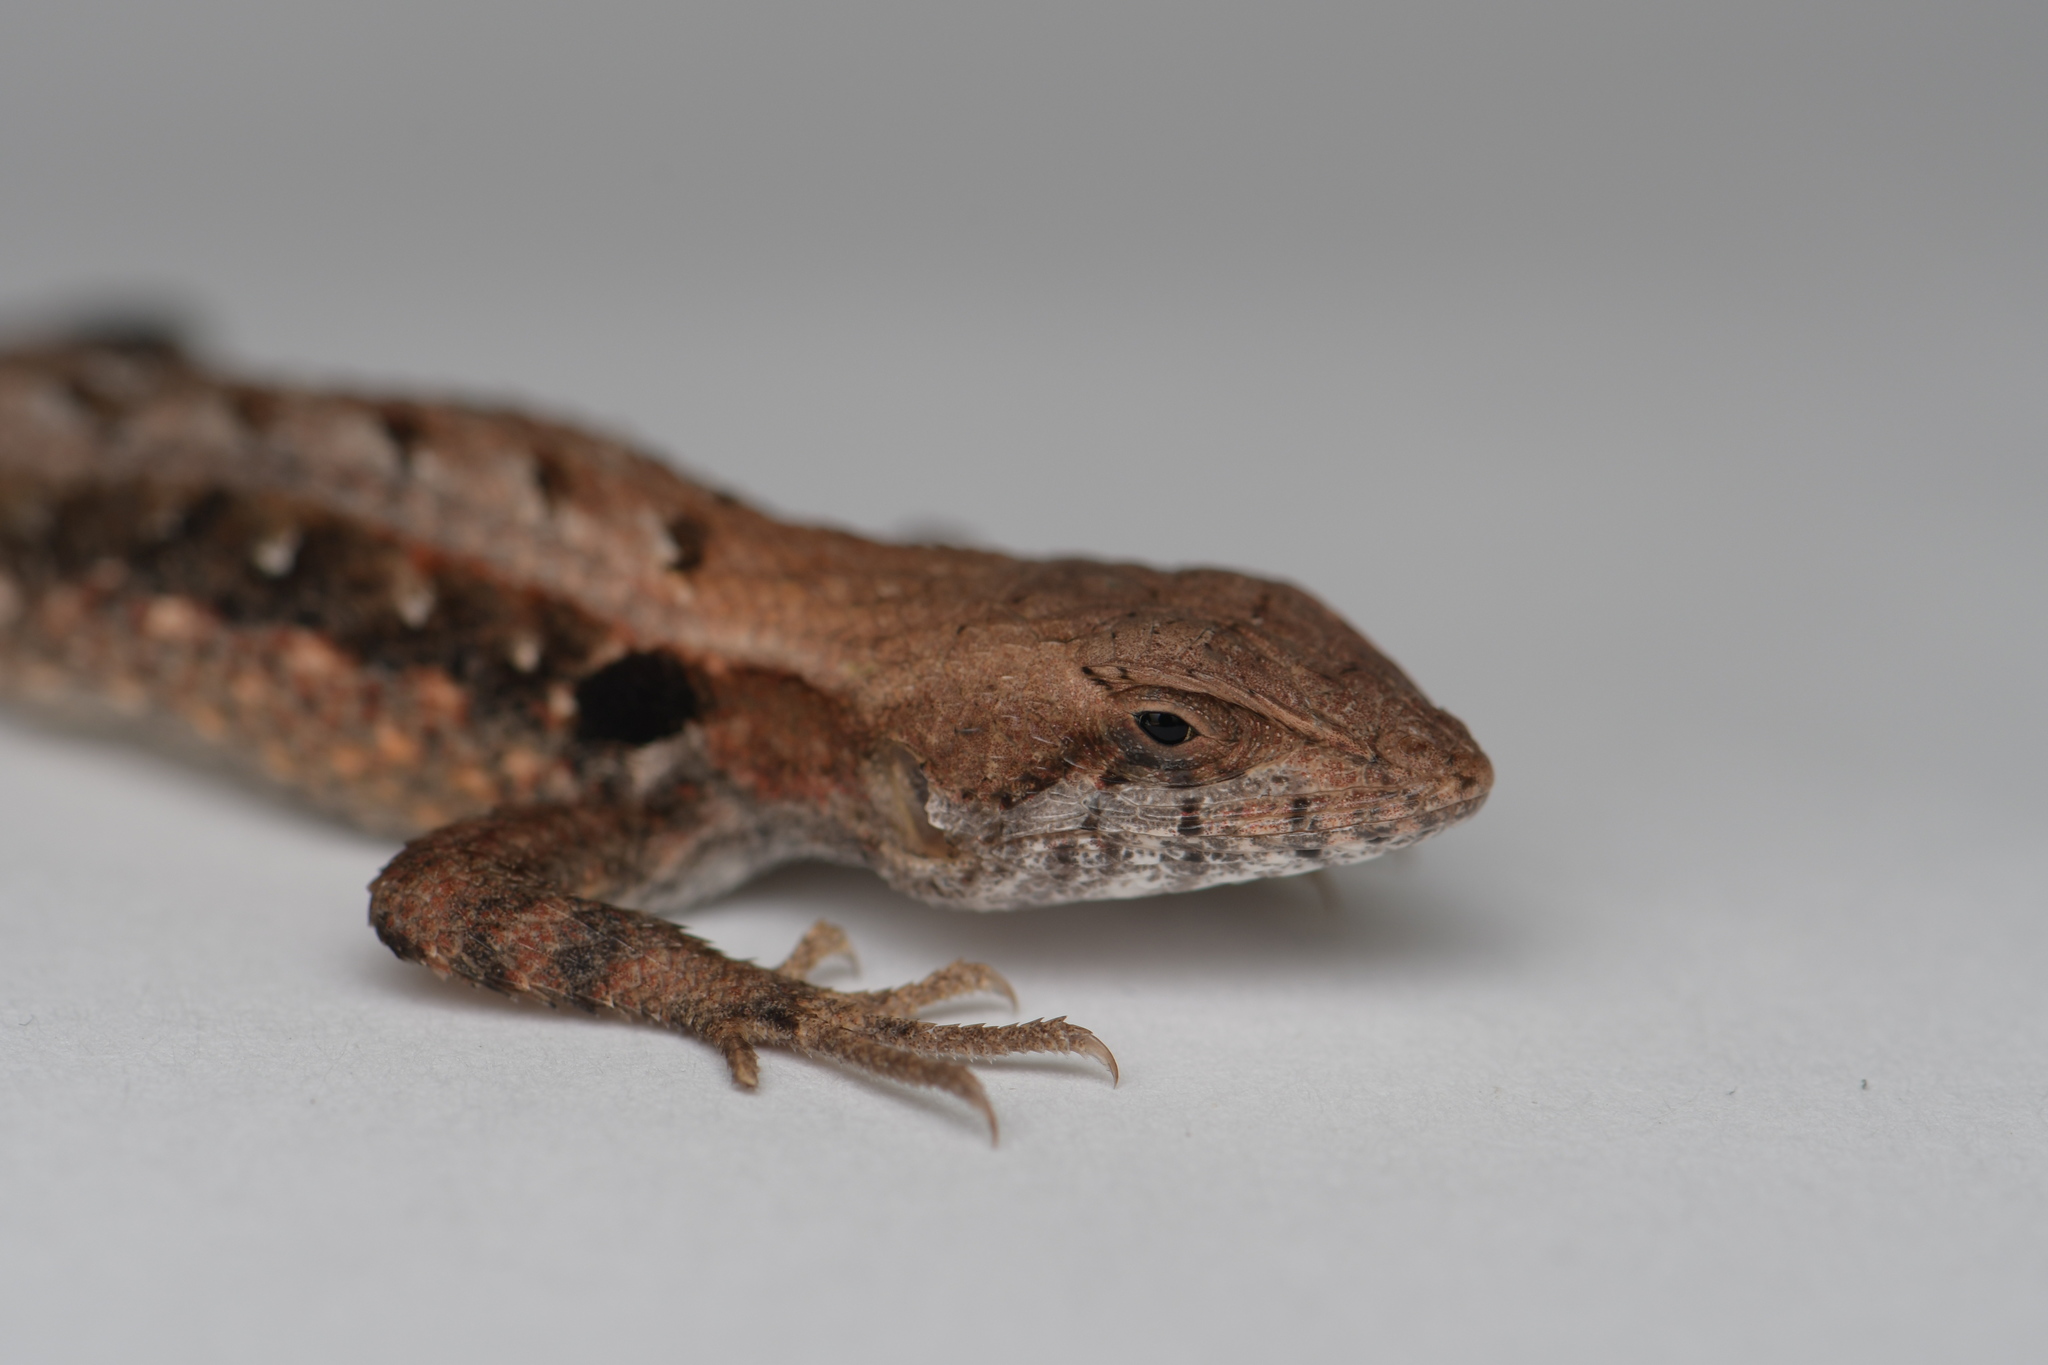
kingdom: Animalia
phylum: Chordata
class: Squamata
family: Phrynosomatidae
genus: Sceloporus
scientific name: Sceloporus siniferus
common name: Longtail spiny lizard
